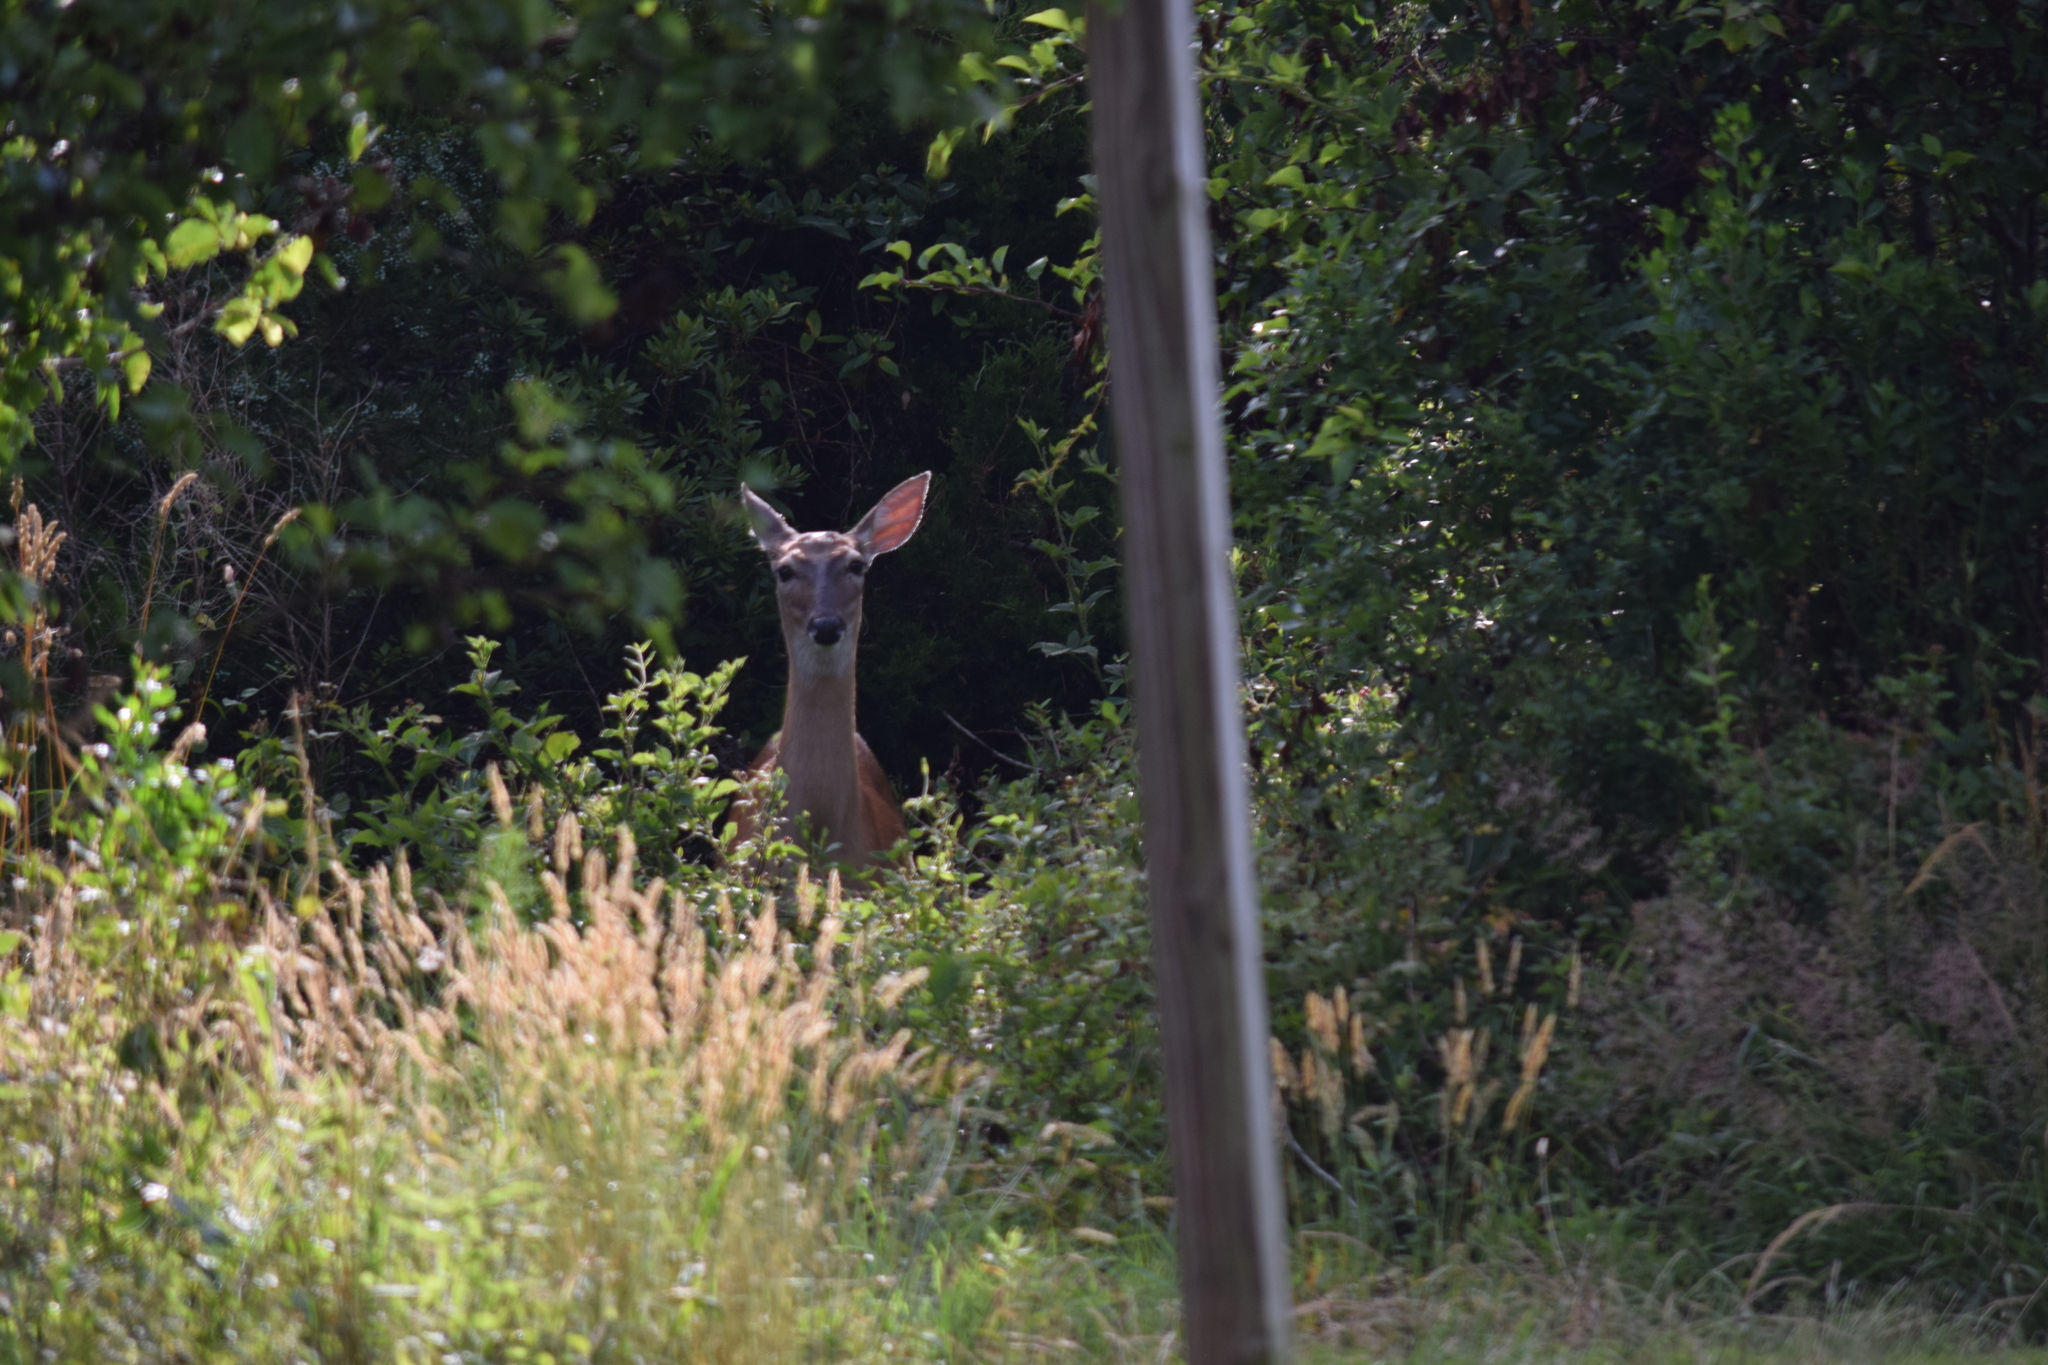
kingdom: Animalia
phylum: Chordata
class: Mammalia
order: Artiodactyla
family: Cervidae
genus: Odocoileus
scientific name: Odocoileus virginianus
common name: White-tailed deer
